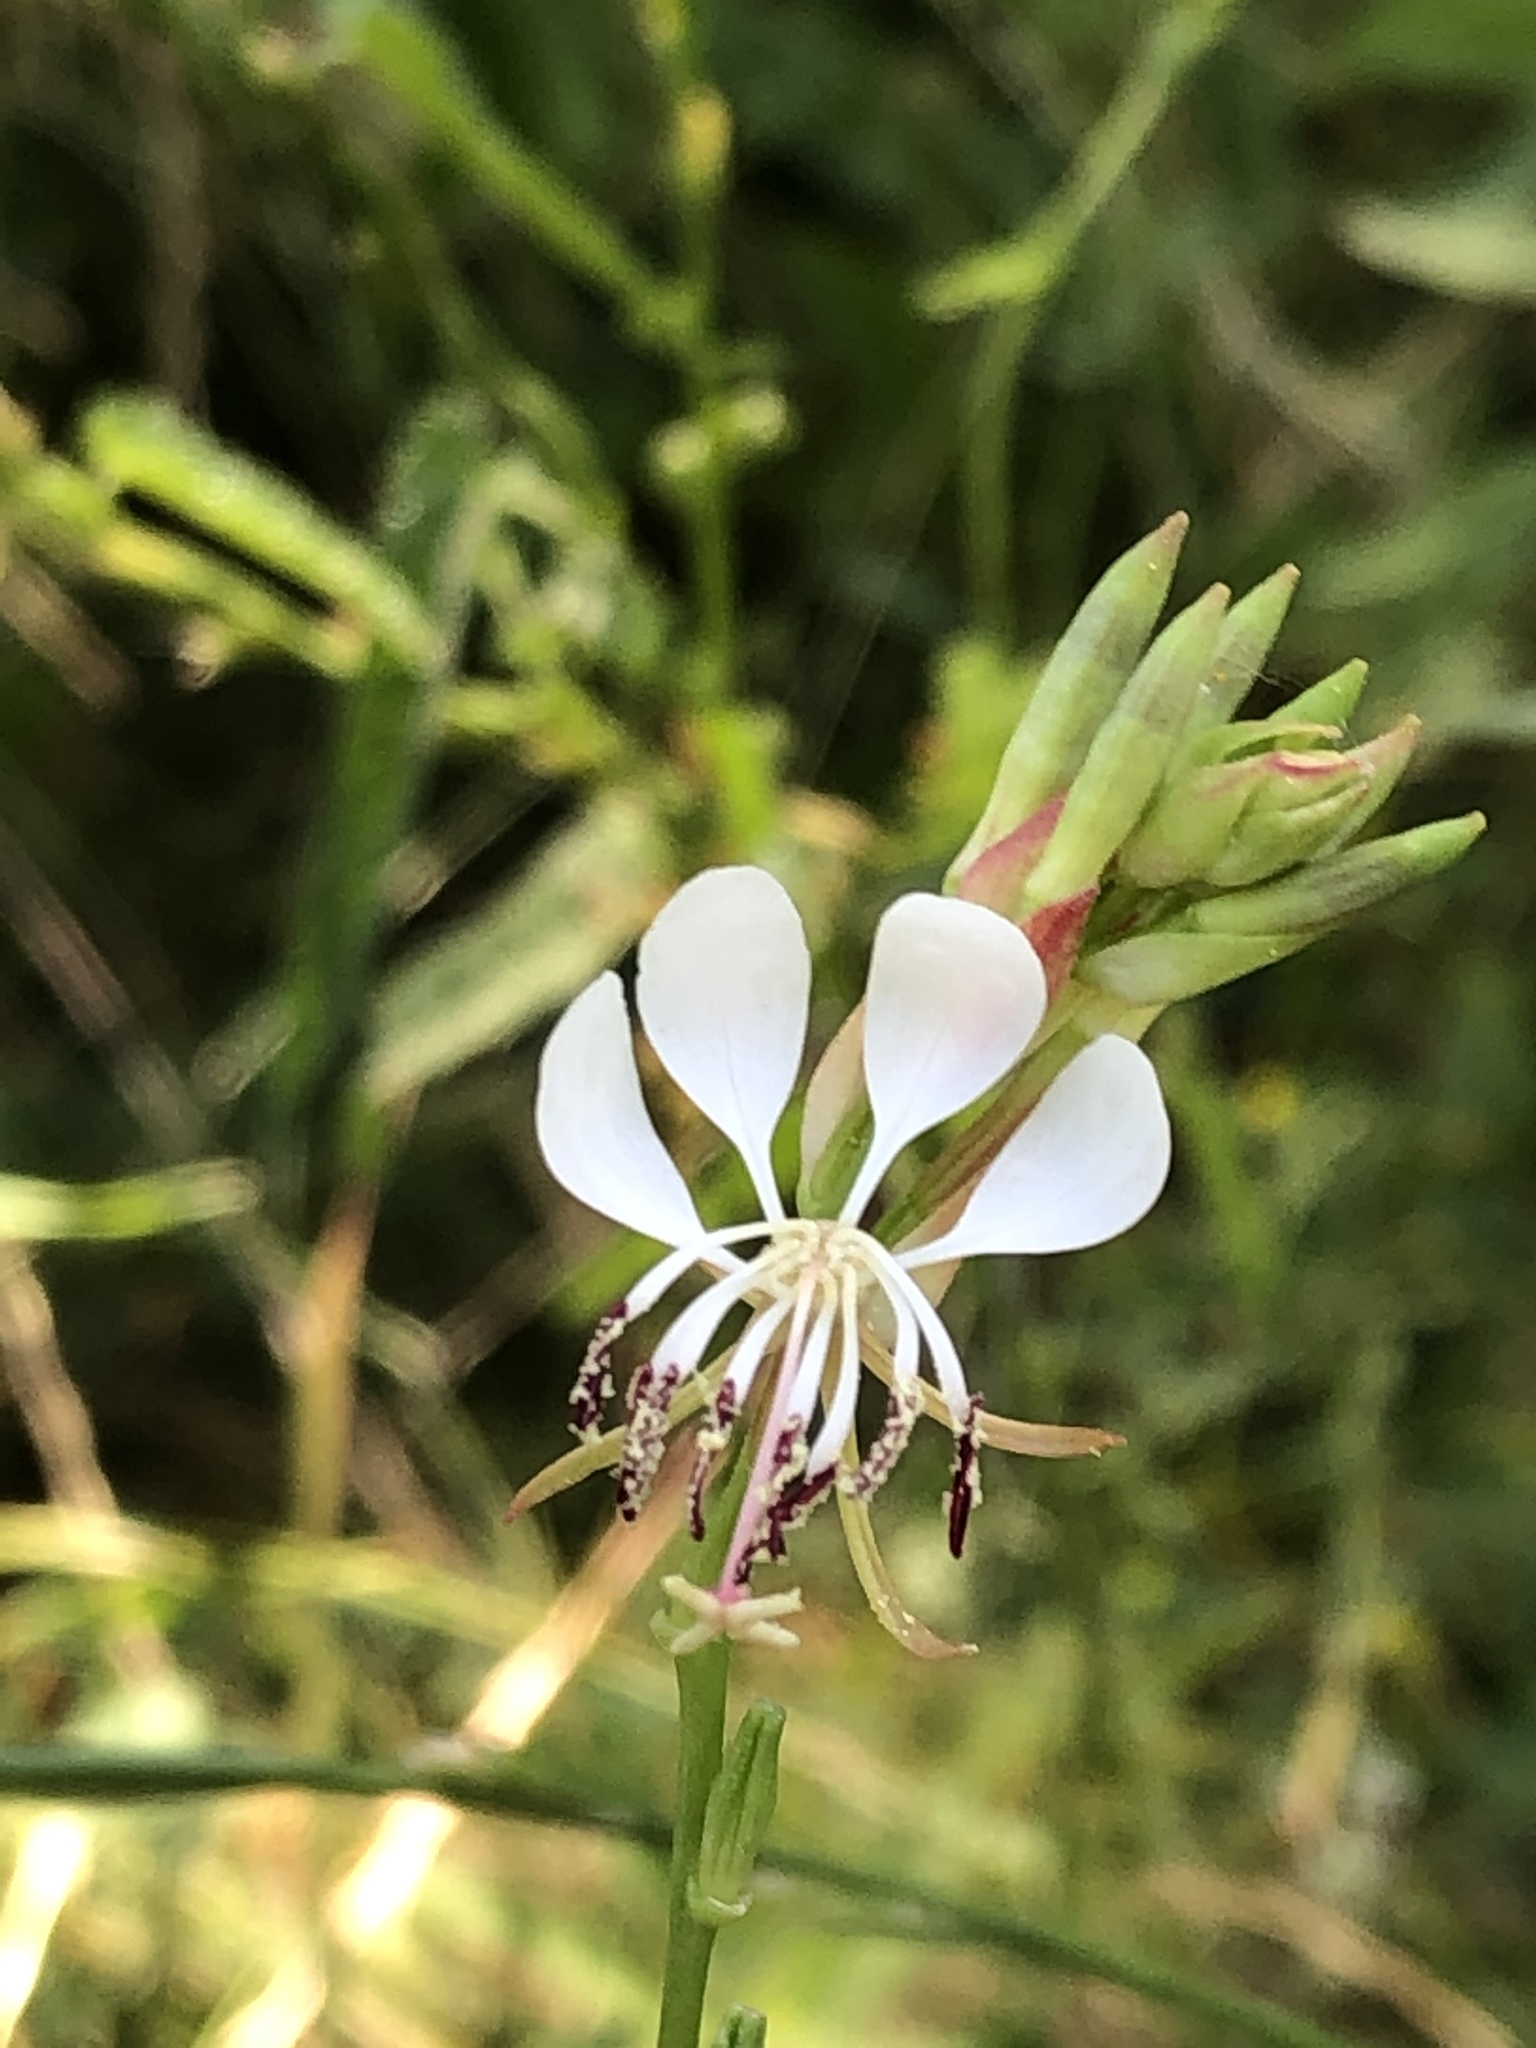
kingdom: Plantae
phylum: Tracheophyta
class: Magnoliopsida
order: Myrtales
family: Onagraceae
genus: Oenothera
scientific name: Oenothera suffulta
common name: Kisses
